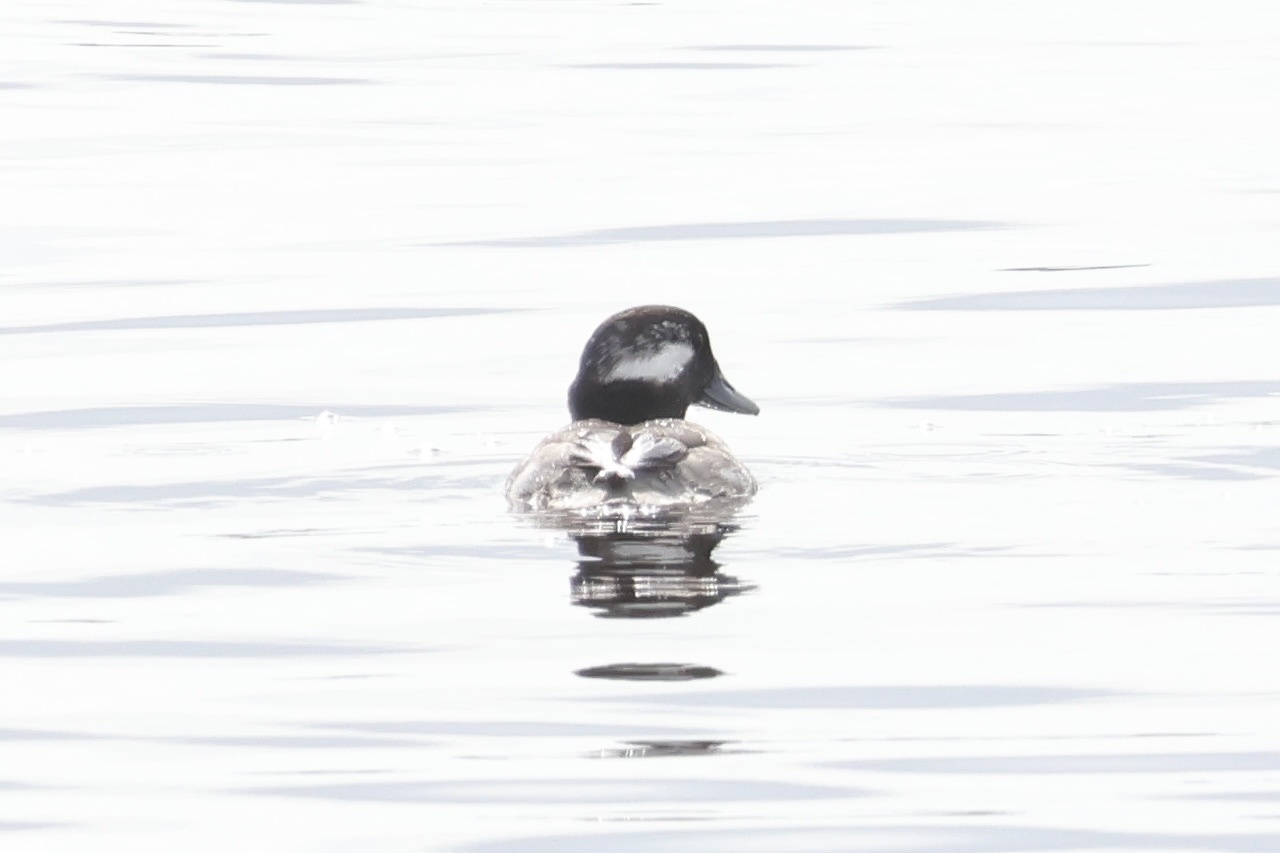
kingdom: Animalia
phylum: Chordata
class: Aves
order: Anseriformes
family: Anatidae
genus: Bucephala
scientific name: Bucephala albeola
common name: Bufflehead
